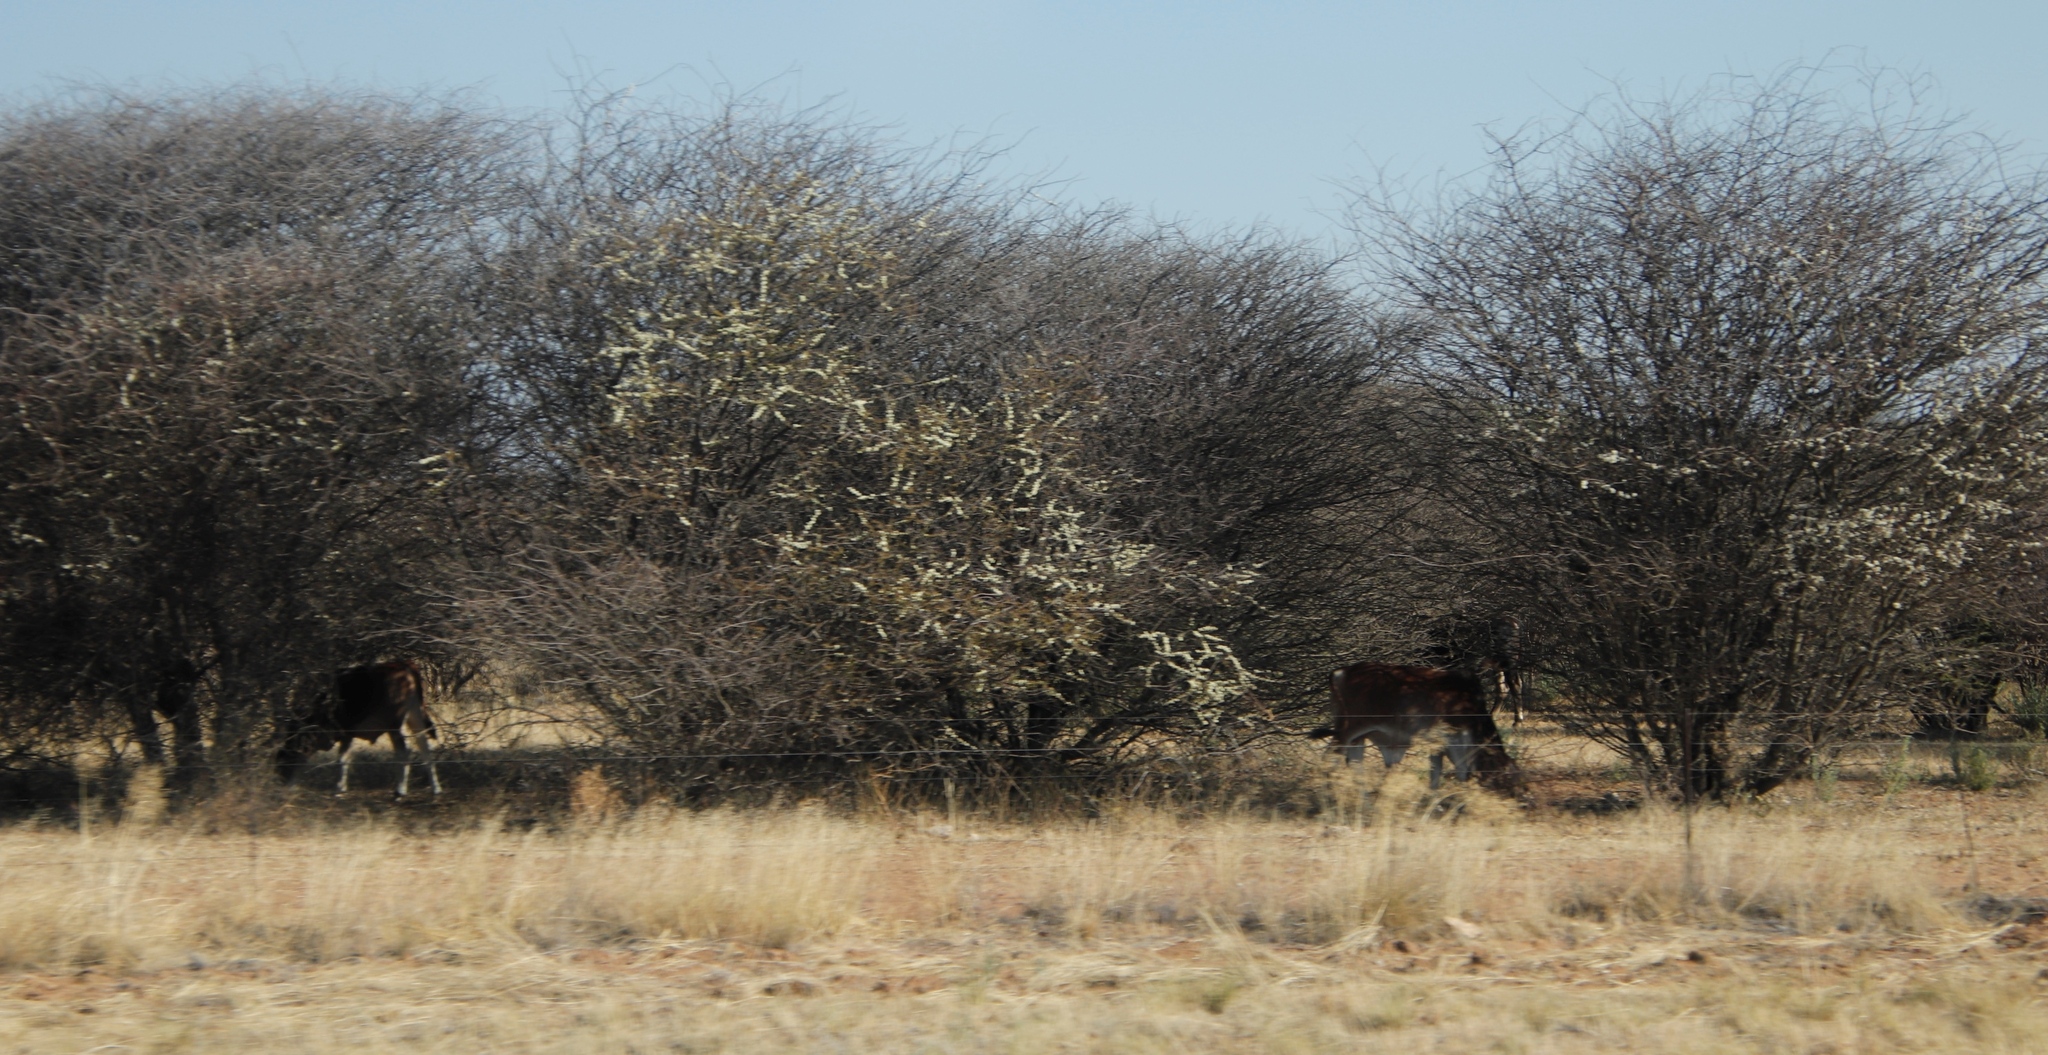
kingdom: Plantae
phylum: Tracheophyta
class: Magnoliopsida
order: Fabales
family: Fabaceae
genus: Senegalia
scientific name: Senegalia mellifera
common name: Hookthorn
